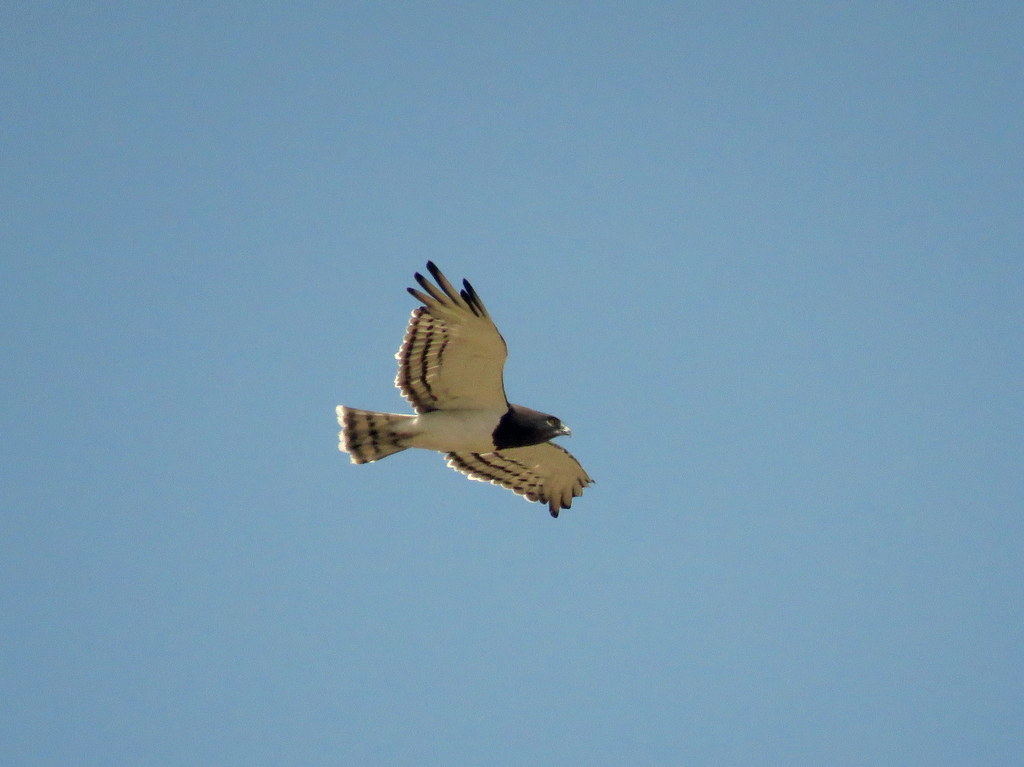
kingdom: Animalia
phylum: Chordata
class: Aves
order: Accipitriformes
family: Accipitridae
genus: Circaetus
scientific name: Circaetus pectoralis
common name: Black-chested snake eagle
